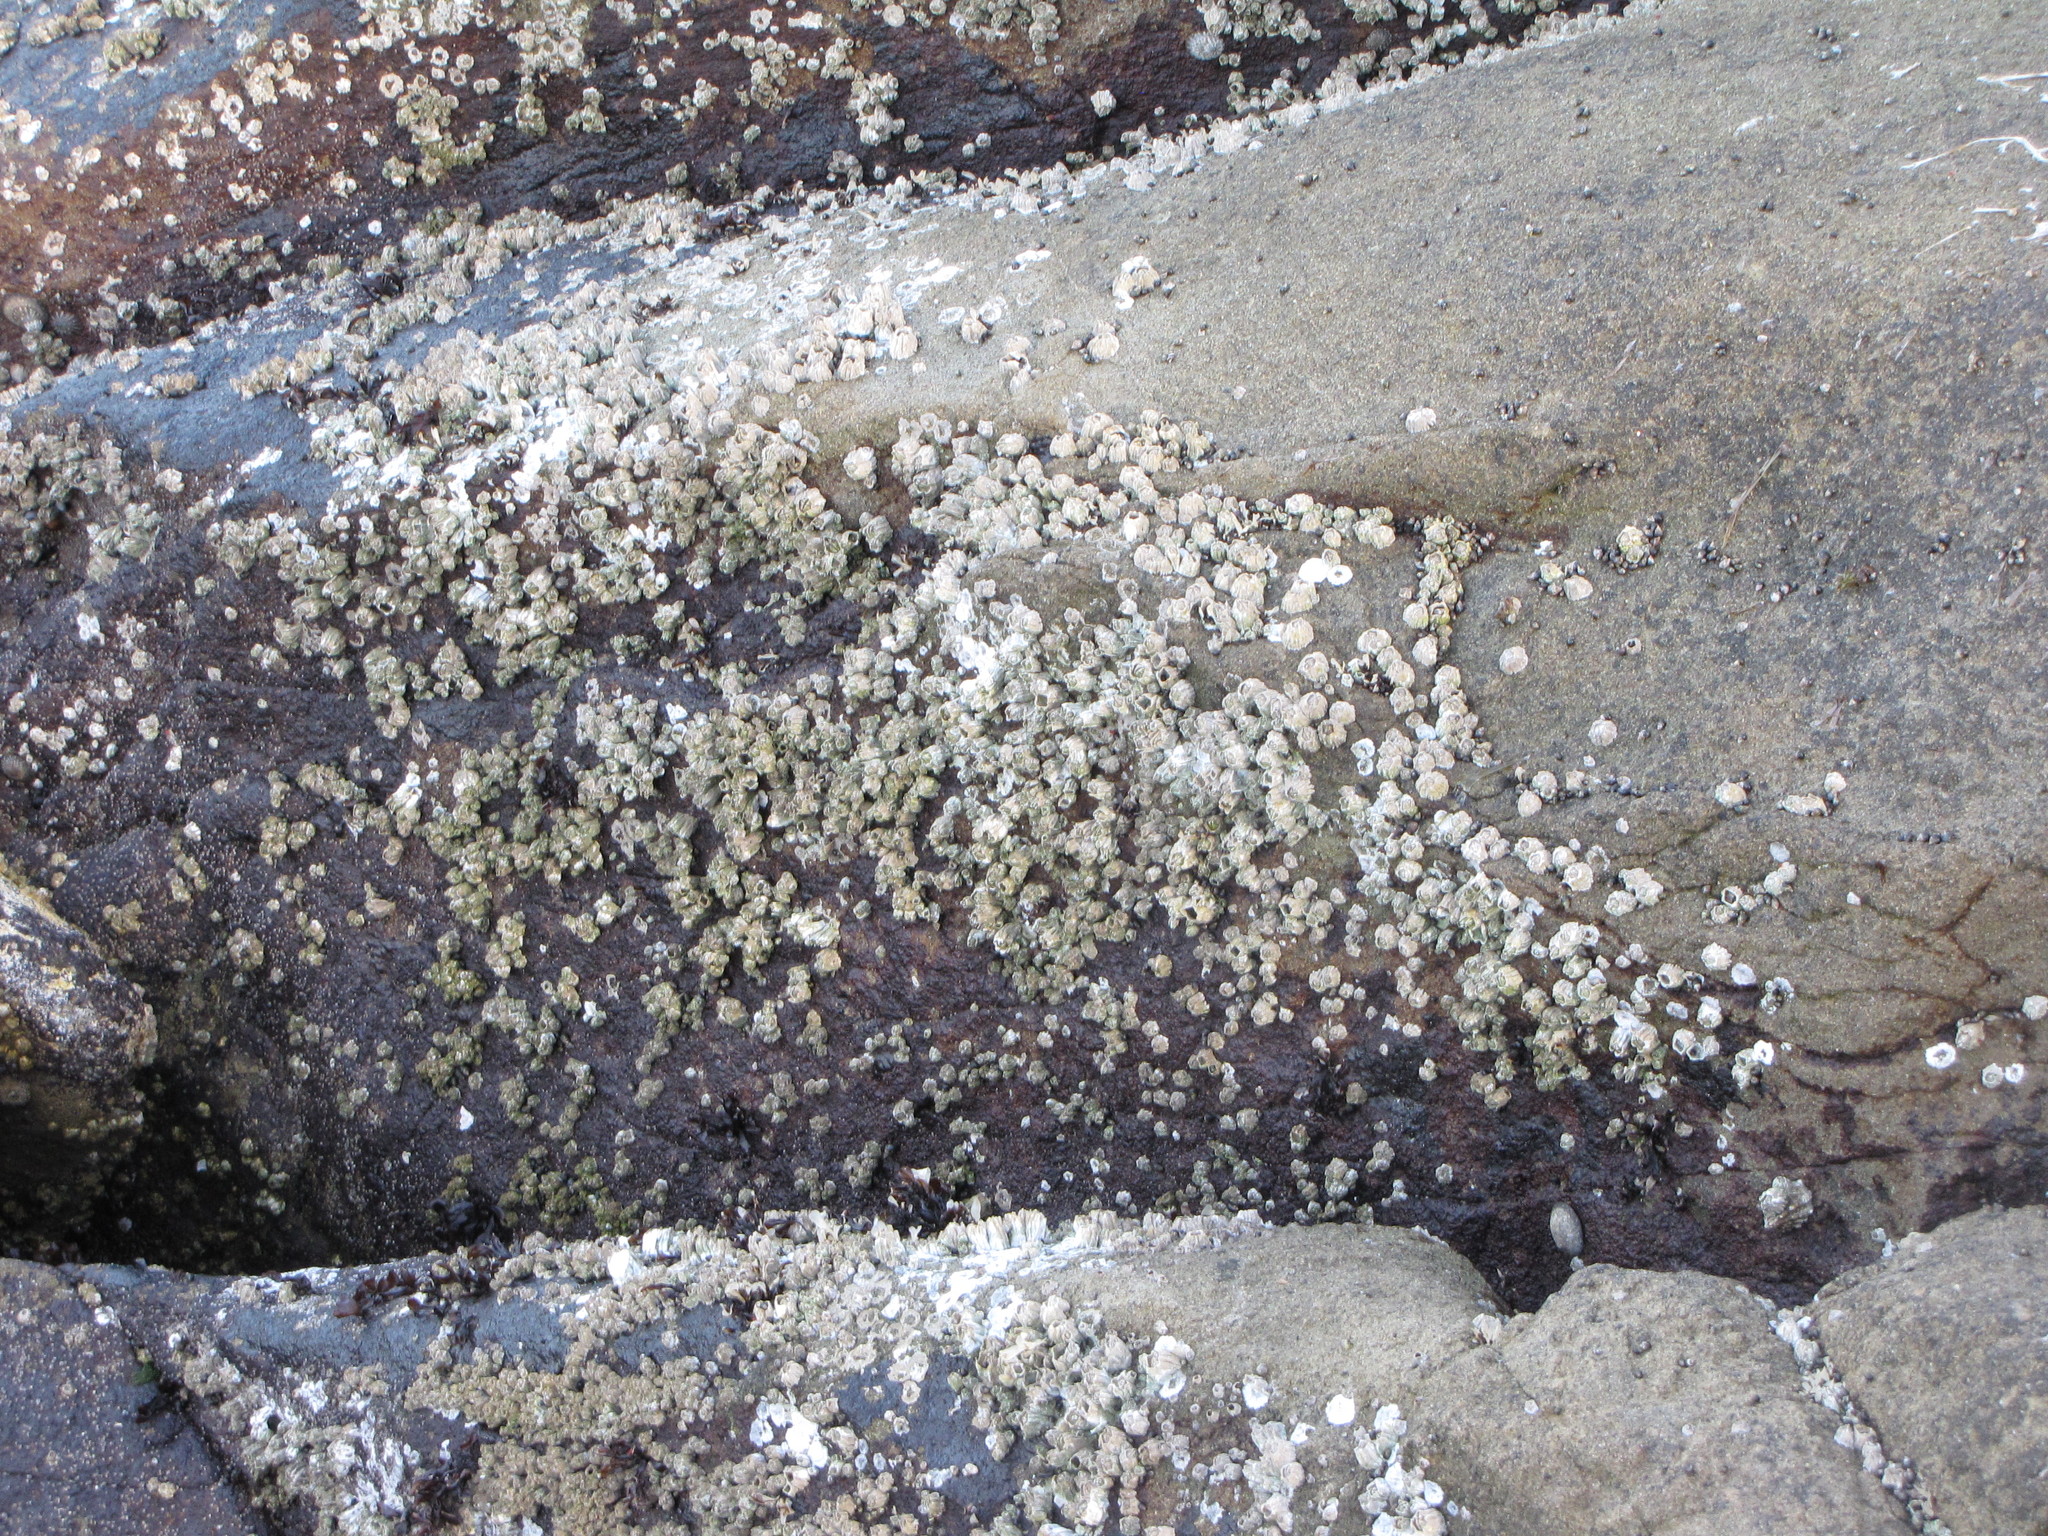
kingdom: Animalia
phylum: Arthropoda
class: Maxillopoda
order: Sessilia
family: Balanidae
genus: Balanus
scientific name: Balanus glandula
